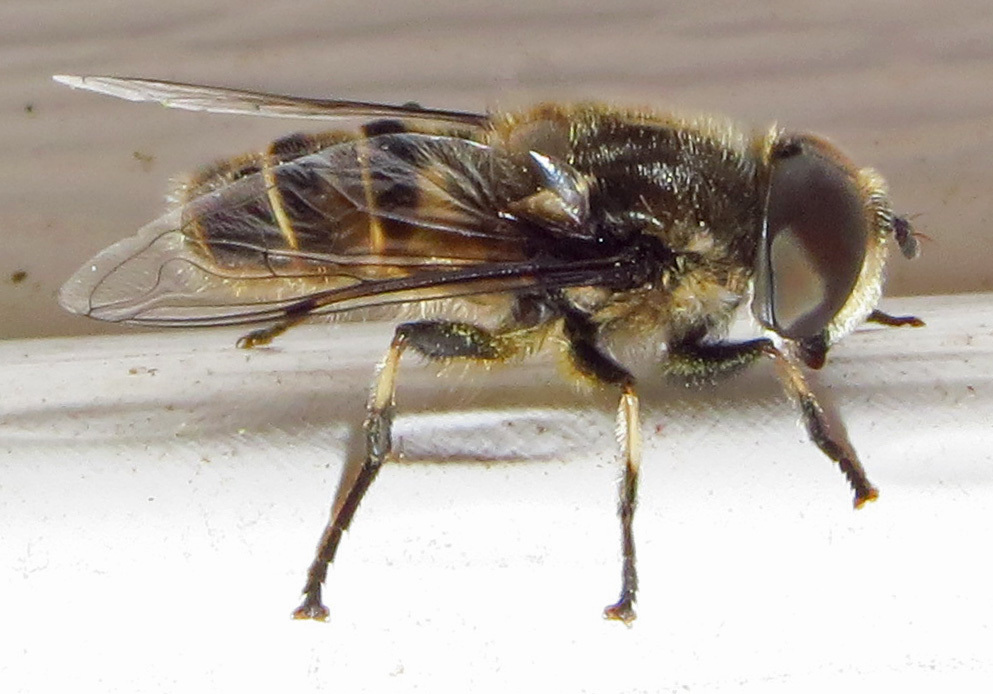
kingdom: Animalia
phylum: Arthropoda
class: Insecta
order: Diptera
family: Syrphidae
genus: Eristalis
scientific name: Eristalis dimidiata
